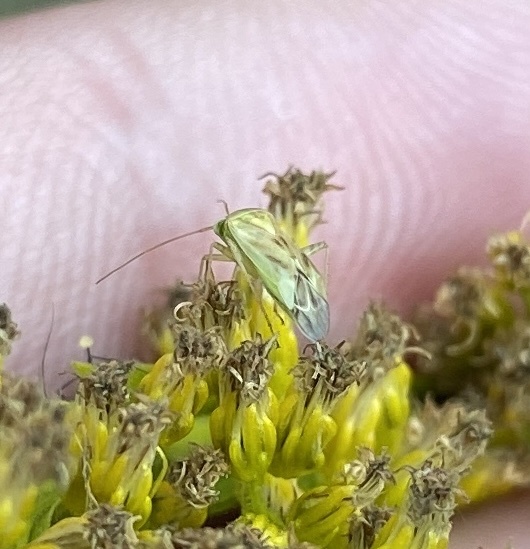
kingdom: Animalia
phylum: Arthropoda
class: Insecta
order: Hemiptera
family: Miridae
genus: Taylorilygus
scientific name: Taylorilygus apicalis
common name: Plant bug
